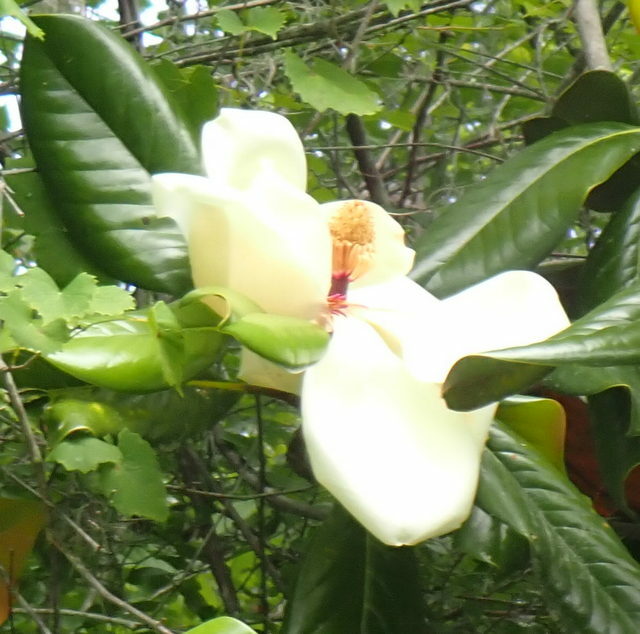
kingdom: Plantae
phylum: Tracheophyta
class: Magnoliopsida
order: Magnoliales
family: Magnoliaceae
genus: Magnolia
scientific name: Magnolia grandiflora
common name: Southern magnolia
